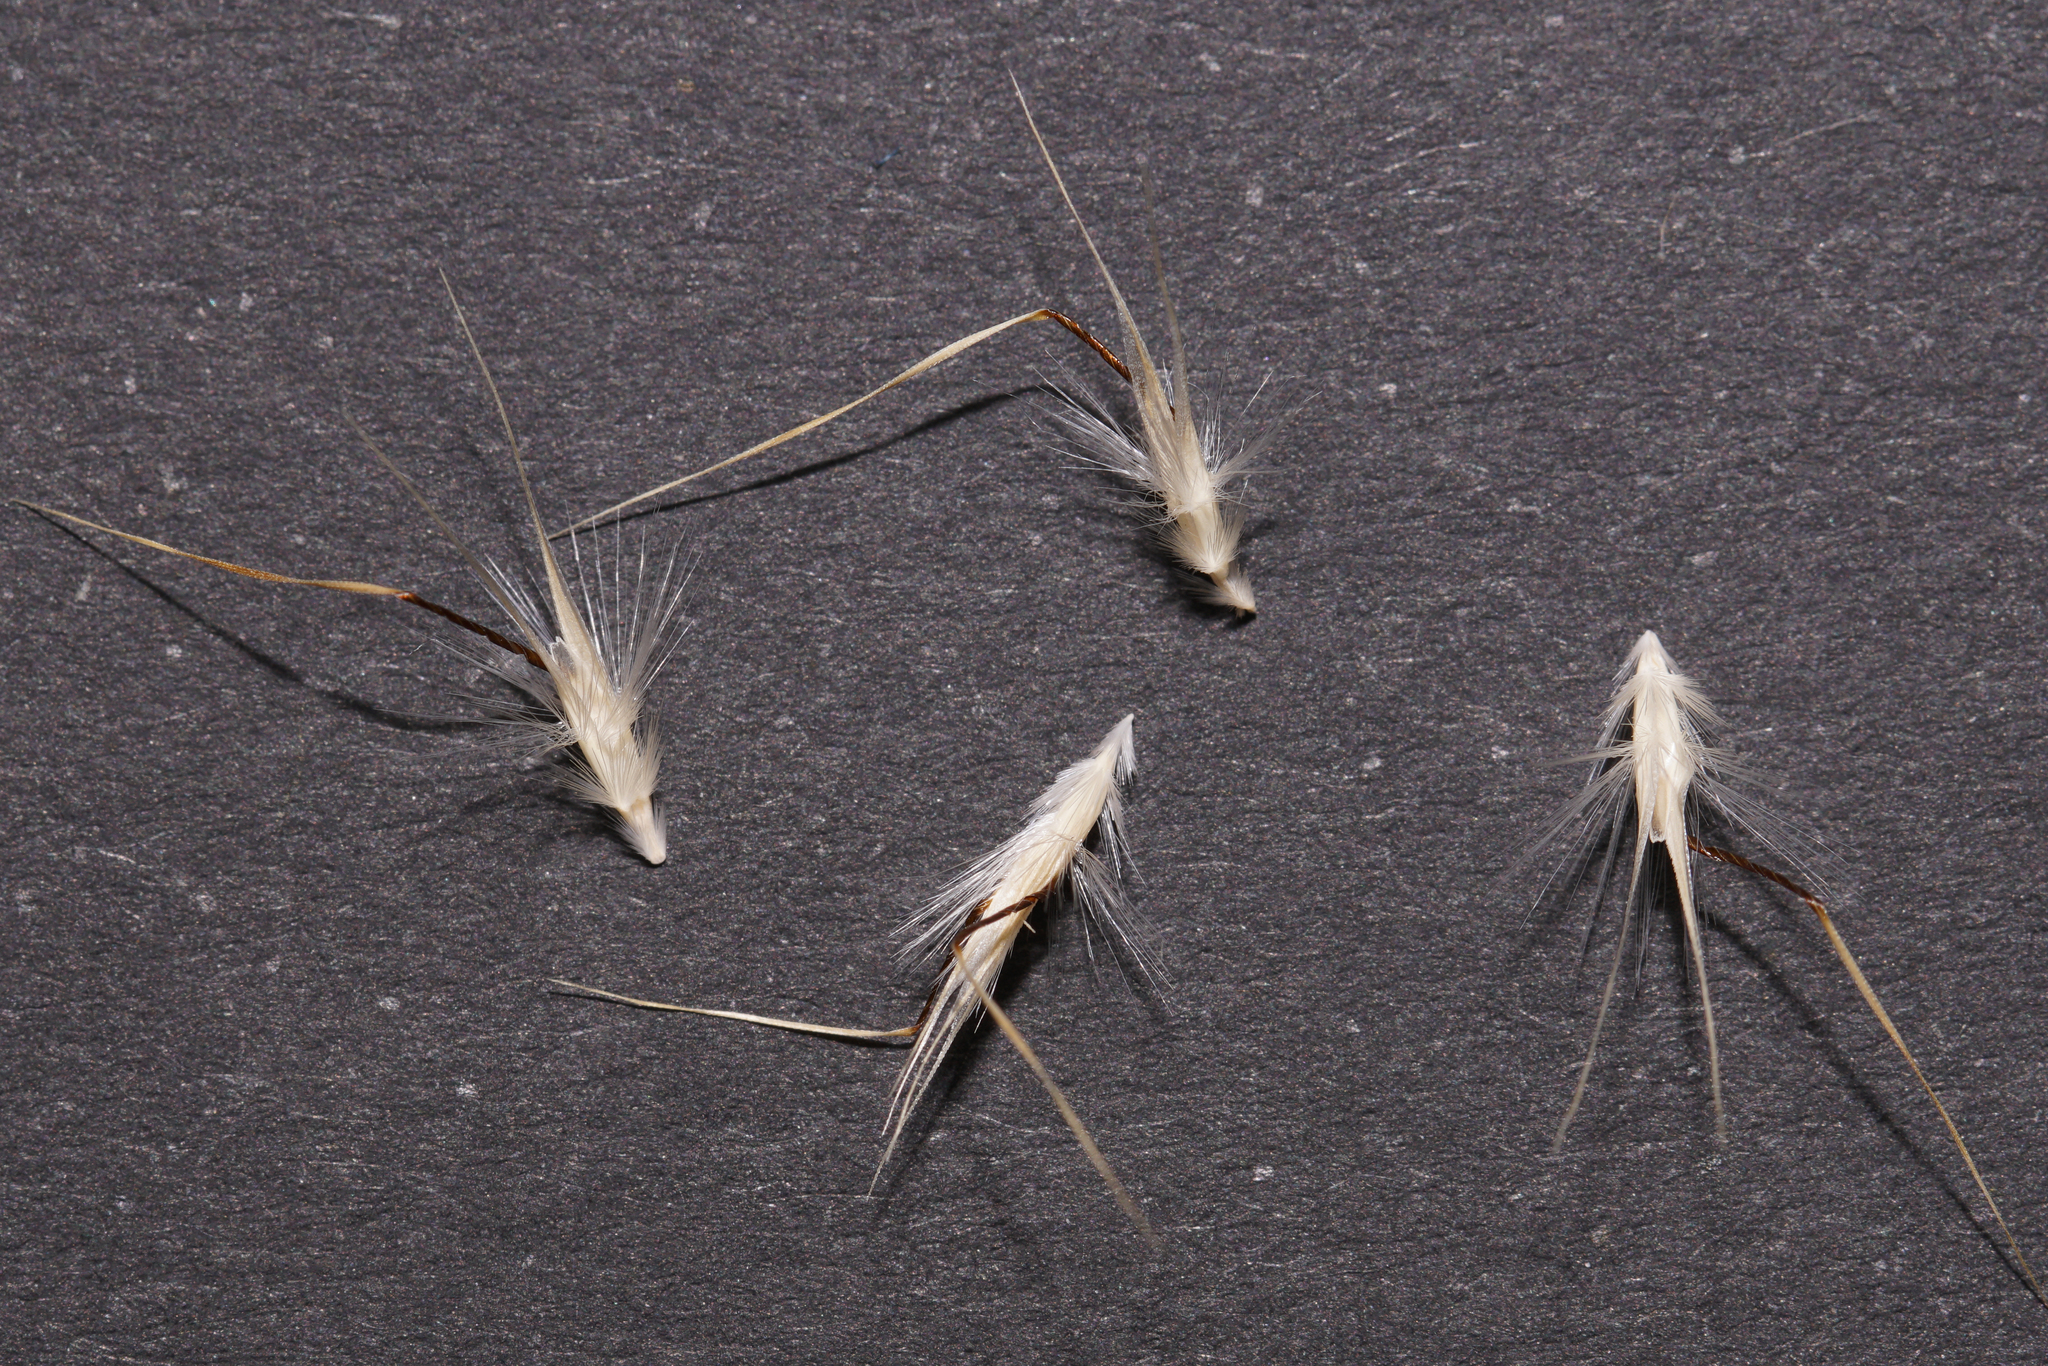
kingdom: Plantae
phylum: Tracheophyta
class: Liliopsida
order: Poales
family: Poaceae
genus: Rytidosperma
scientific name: Rytidosperma caespitosum
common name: Tufted wallaby grass
